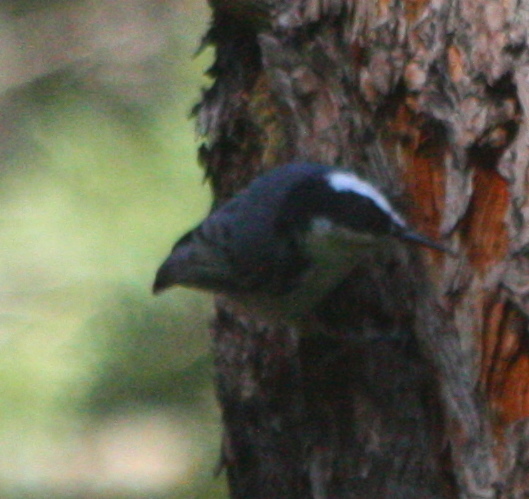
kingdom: Animalia
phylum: Chordata
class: Aves
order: Passeriformes
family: Sittidae
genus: Sitta
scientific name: Sitta carolinensis
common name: White-breasted nuthatch
